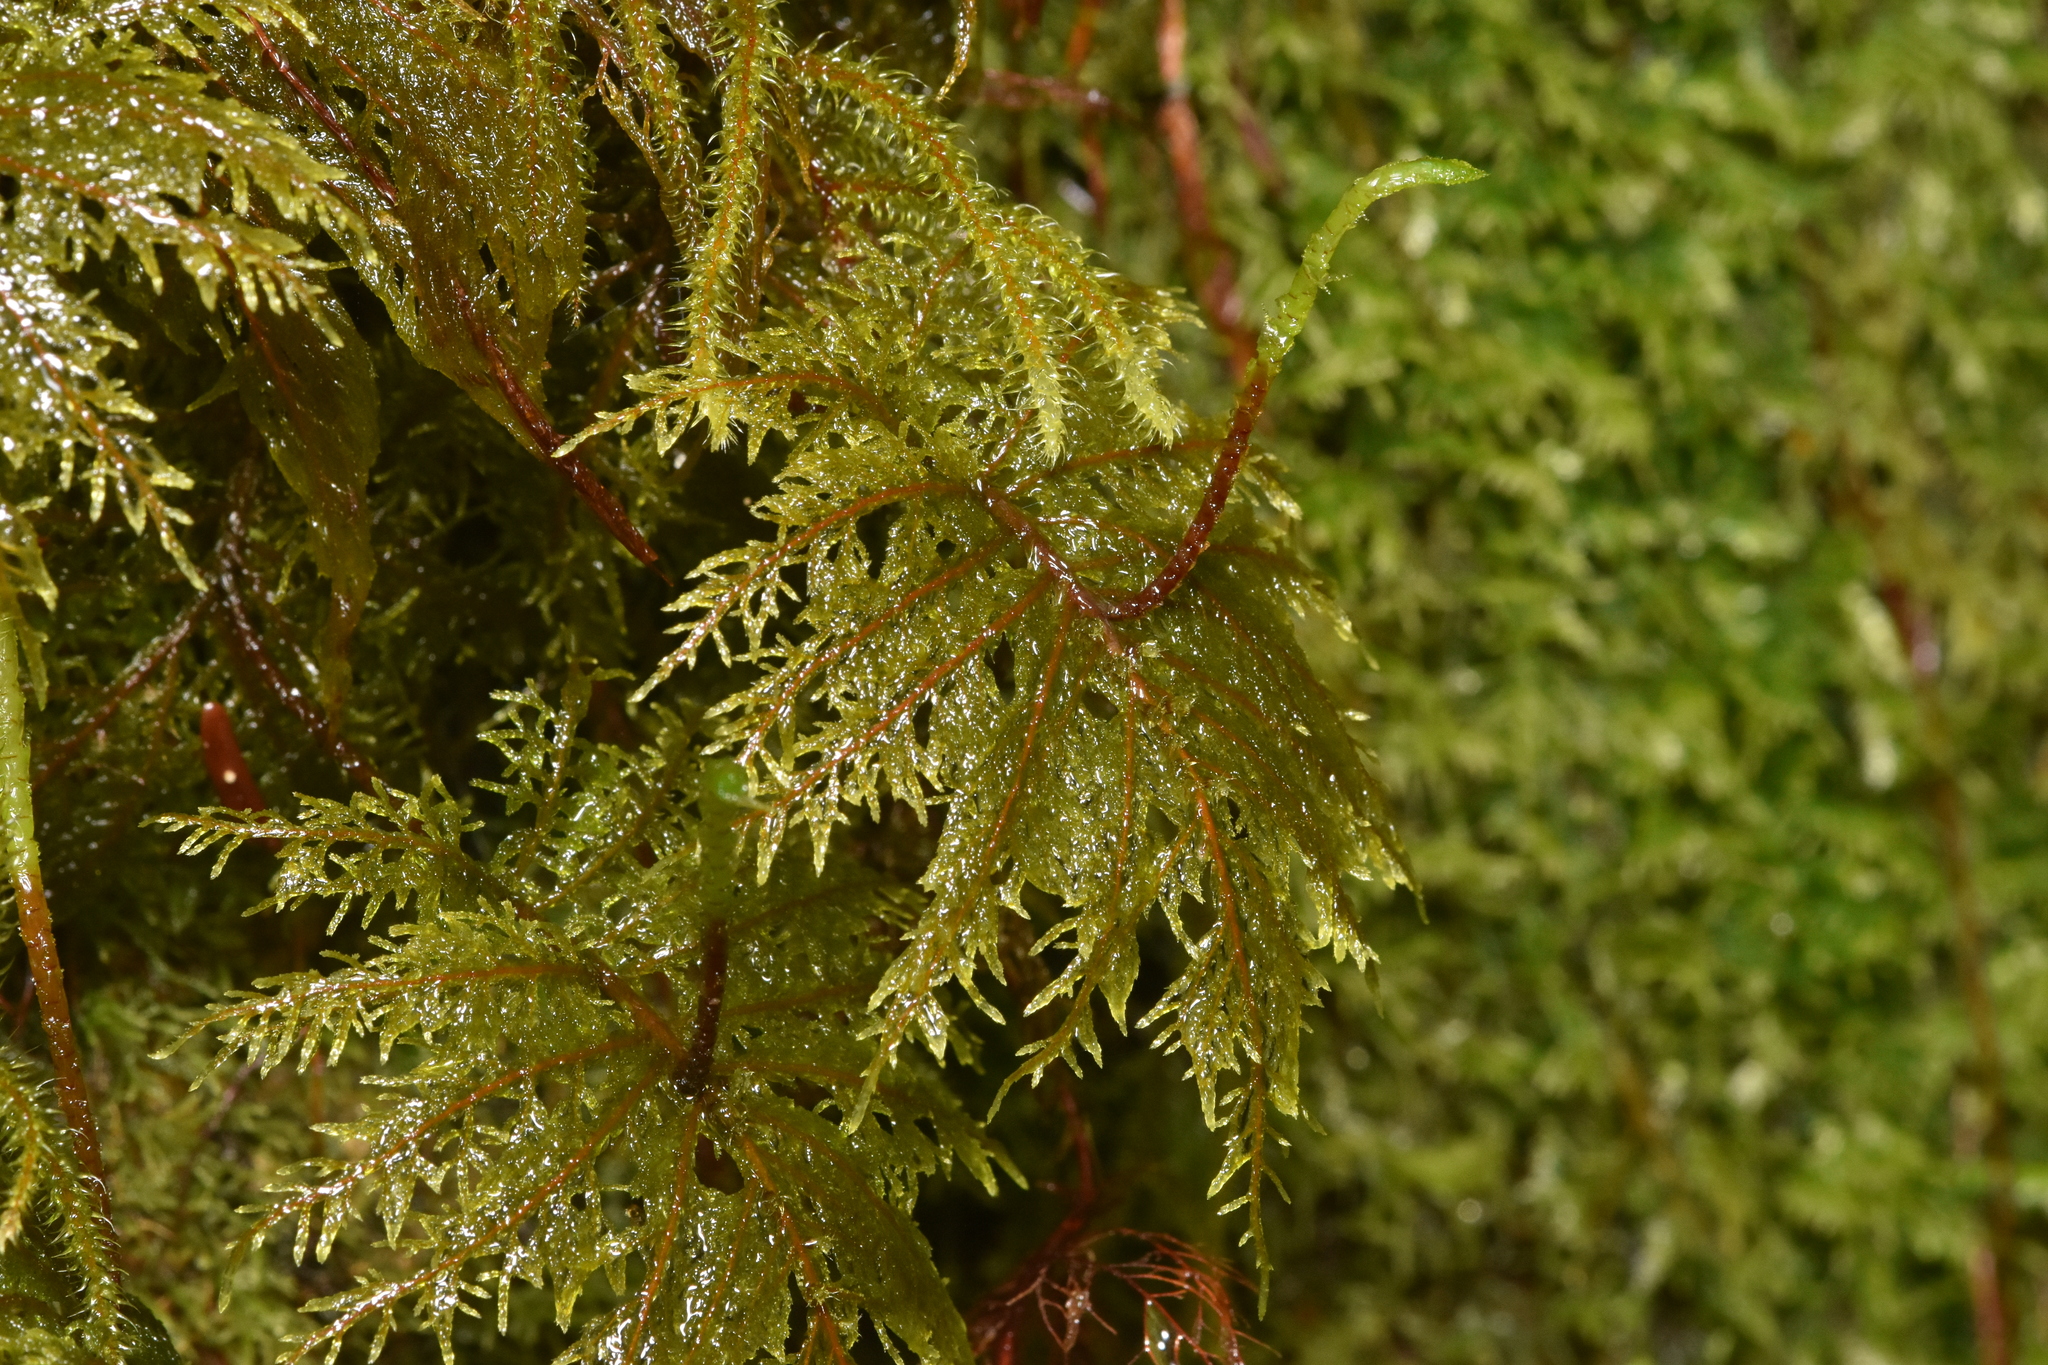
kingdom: Plantae
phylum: Bryophyta
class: Bryopsida
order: Hypnales
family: Hylocomiaceae
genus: Hylocomium
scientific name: Hylocomium splendens
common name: Stairstep moss
